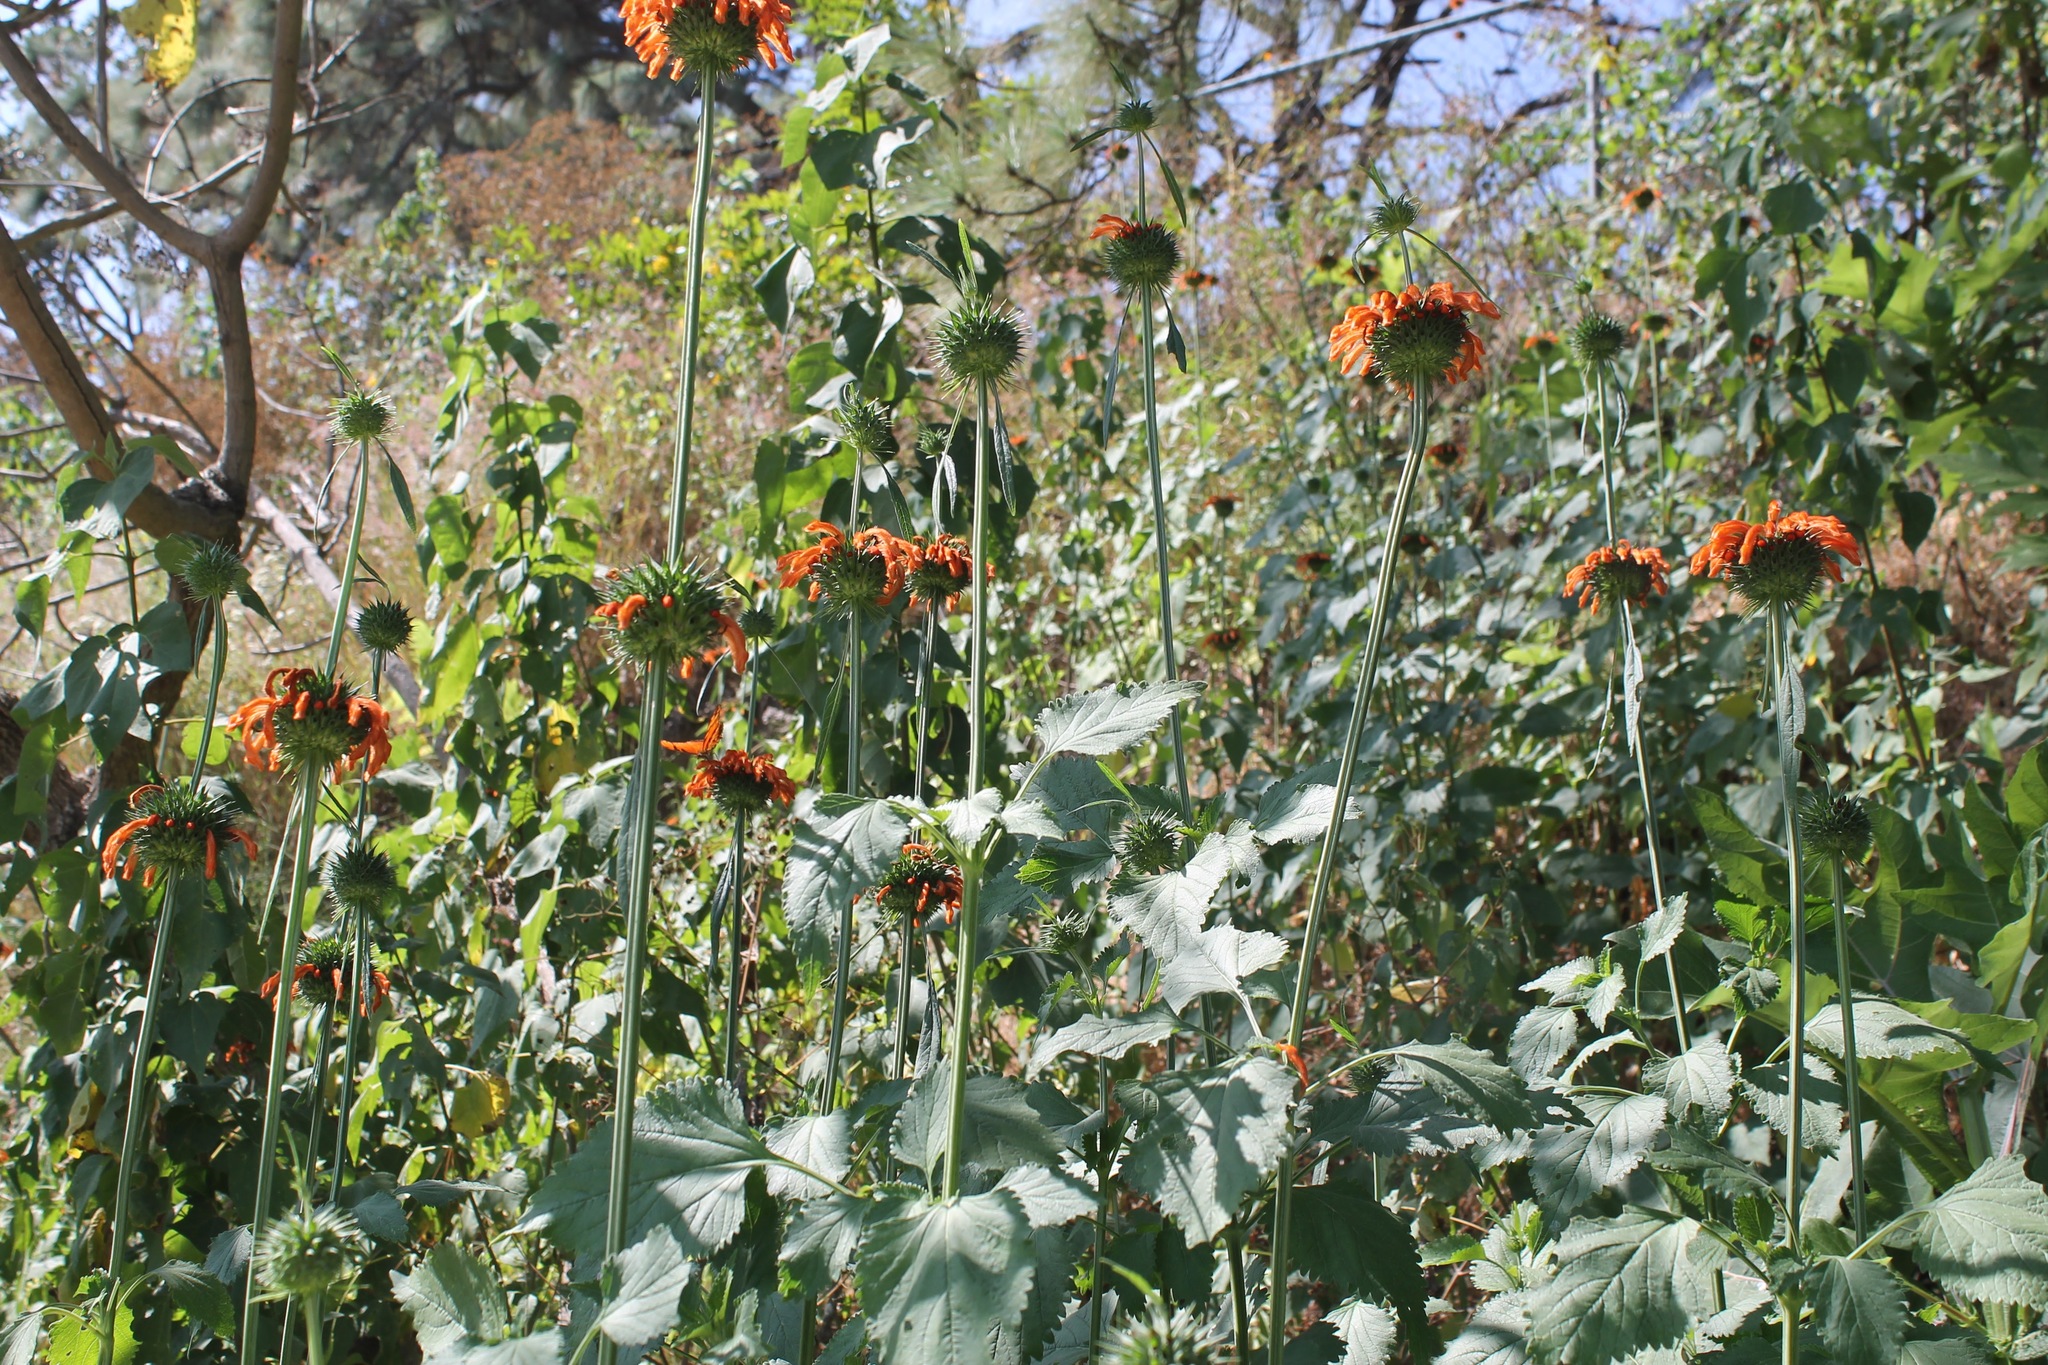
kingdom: Plantae
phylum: Tracheophyta
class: Magnoliopsida
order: Lamiales
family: Lamiaceae
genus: Leonotis
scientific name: Leonotis nepetifolia
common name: Christmas candlestick
